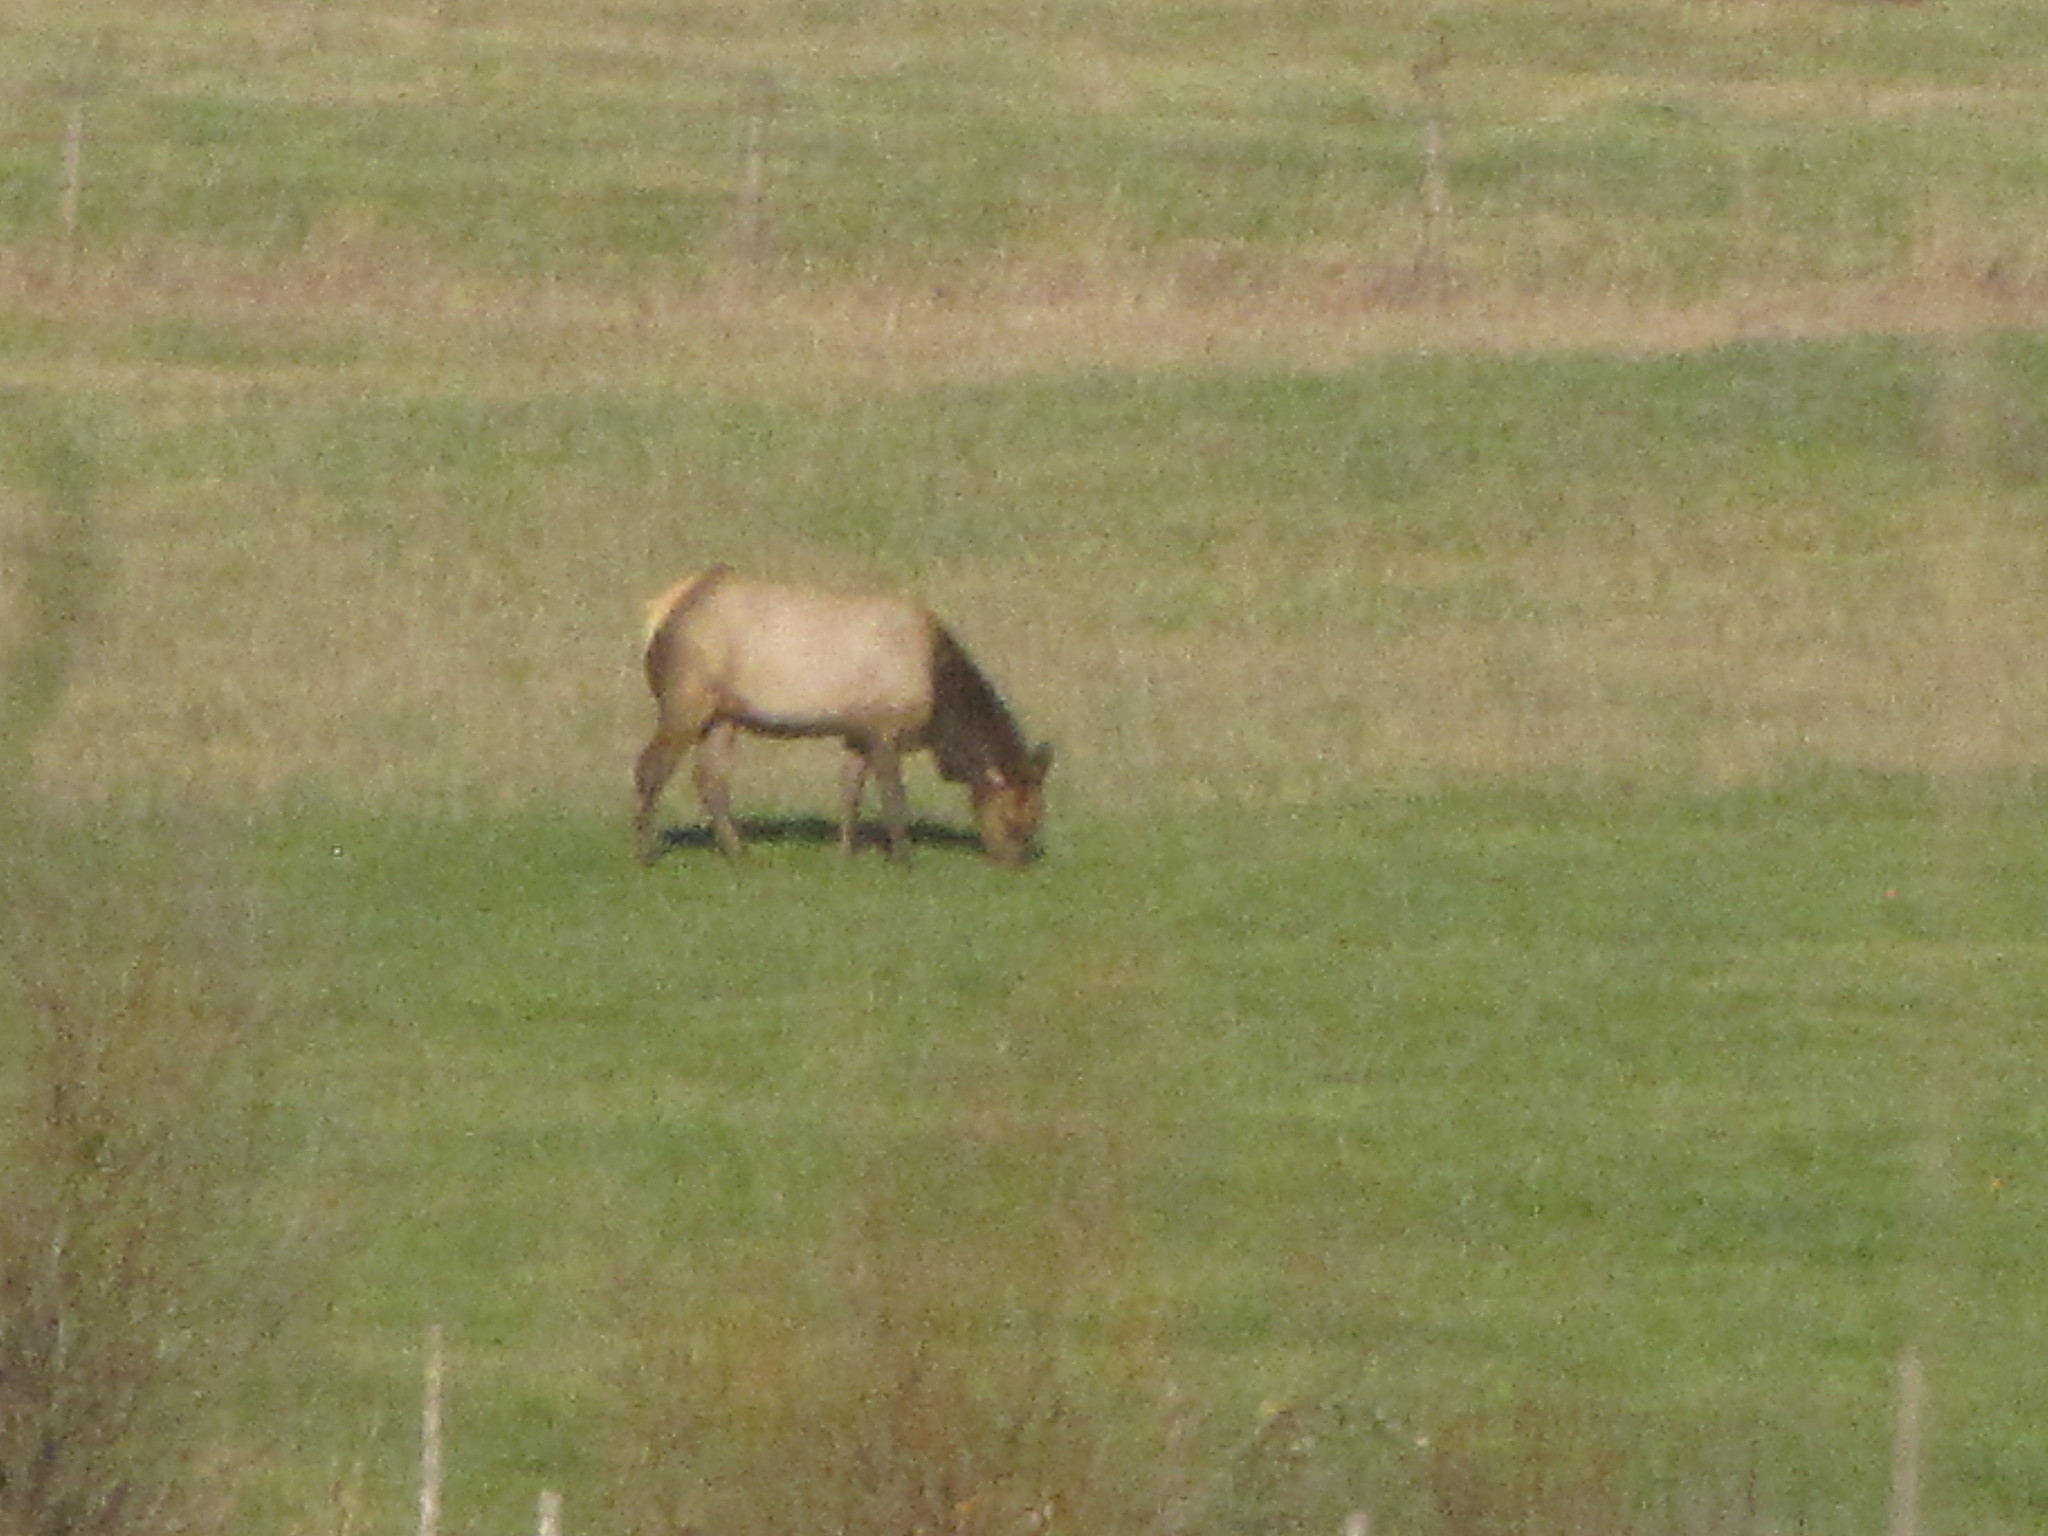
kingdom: Animalia
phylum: Chordata
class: Mammalia
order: Artiodactyla
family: Cervidae
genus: Cervus
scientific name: Cervus elaphus
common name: Red deer
